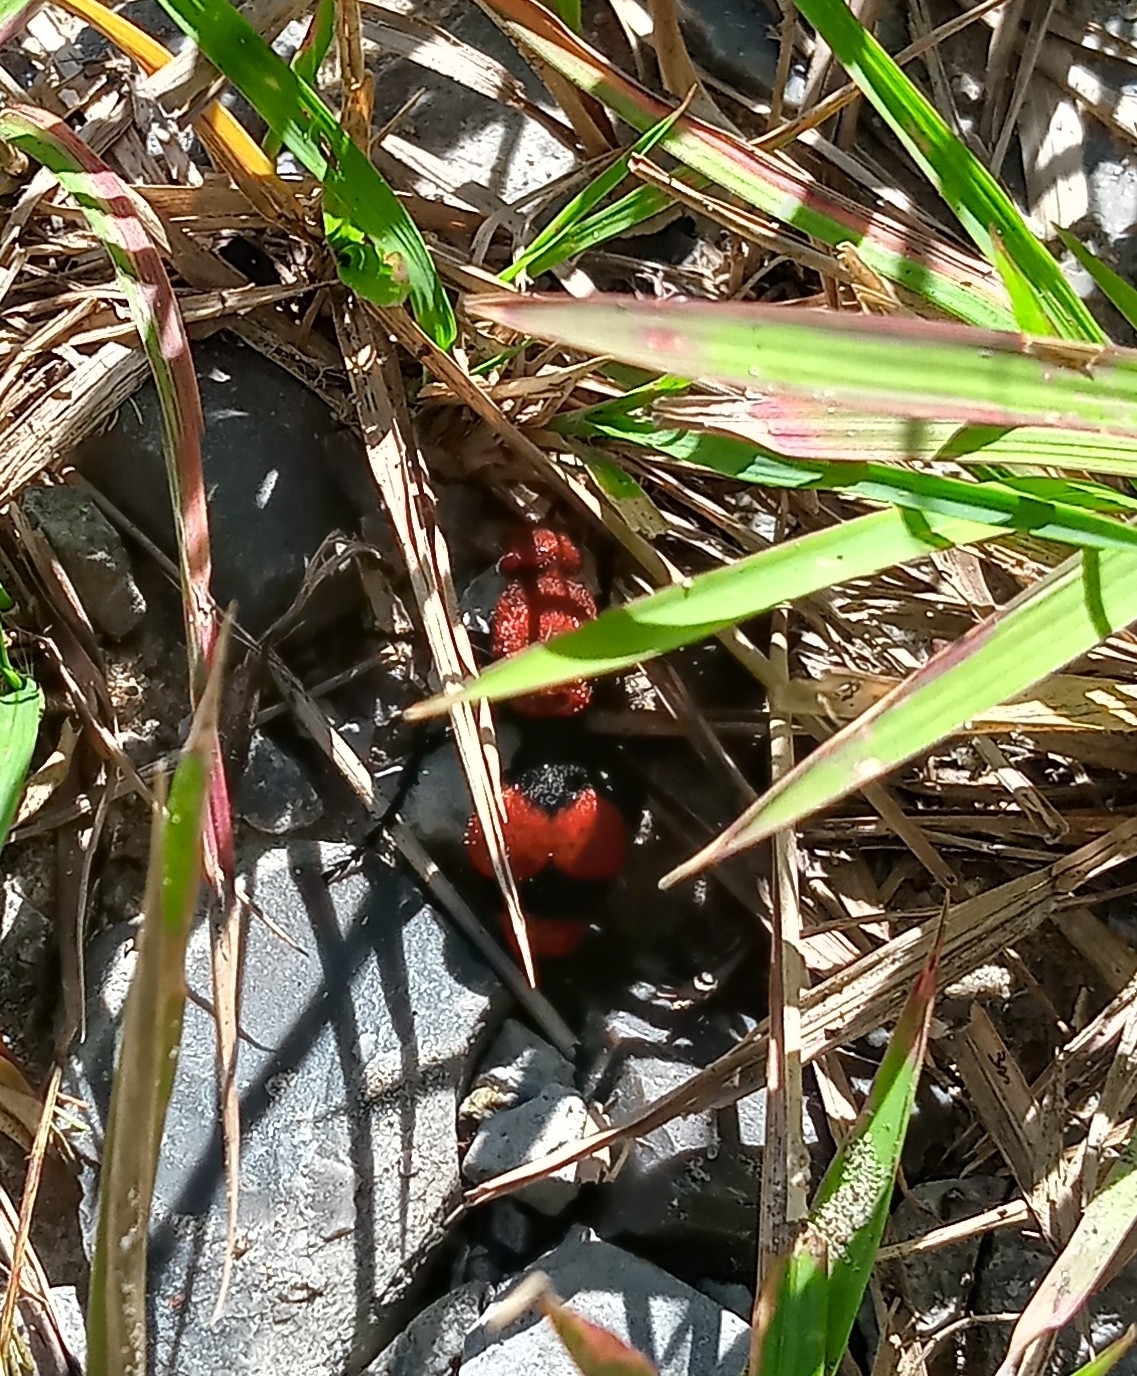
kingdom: Animalia
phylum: Arthropoda
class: Insecta
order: Hymenoptera
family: Mutillidae
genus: Dasymutilla
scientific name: Dasymutilla occidentalis
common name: Common eastern velvet ant
